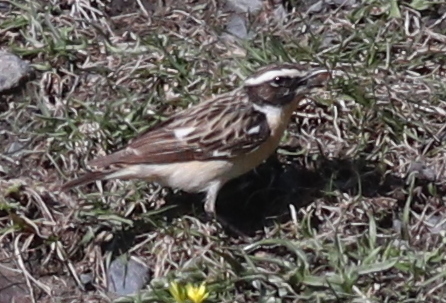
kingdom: Animalia
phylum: Chordata
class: Aves
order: Passeriformes
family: Muscicapidae
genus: Saxicola
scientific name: Saxicola rubetra
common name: Whinchat
